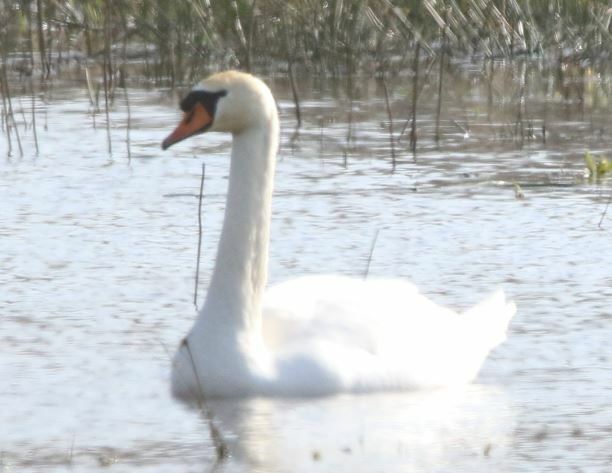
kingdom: Animalia
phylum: Chordata
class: Aves
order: Anseriformes
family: Anatidae
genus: Cygnus
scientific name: Cygnus olor
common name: Mute swan
